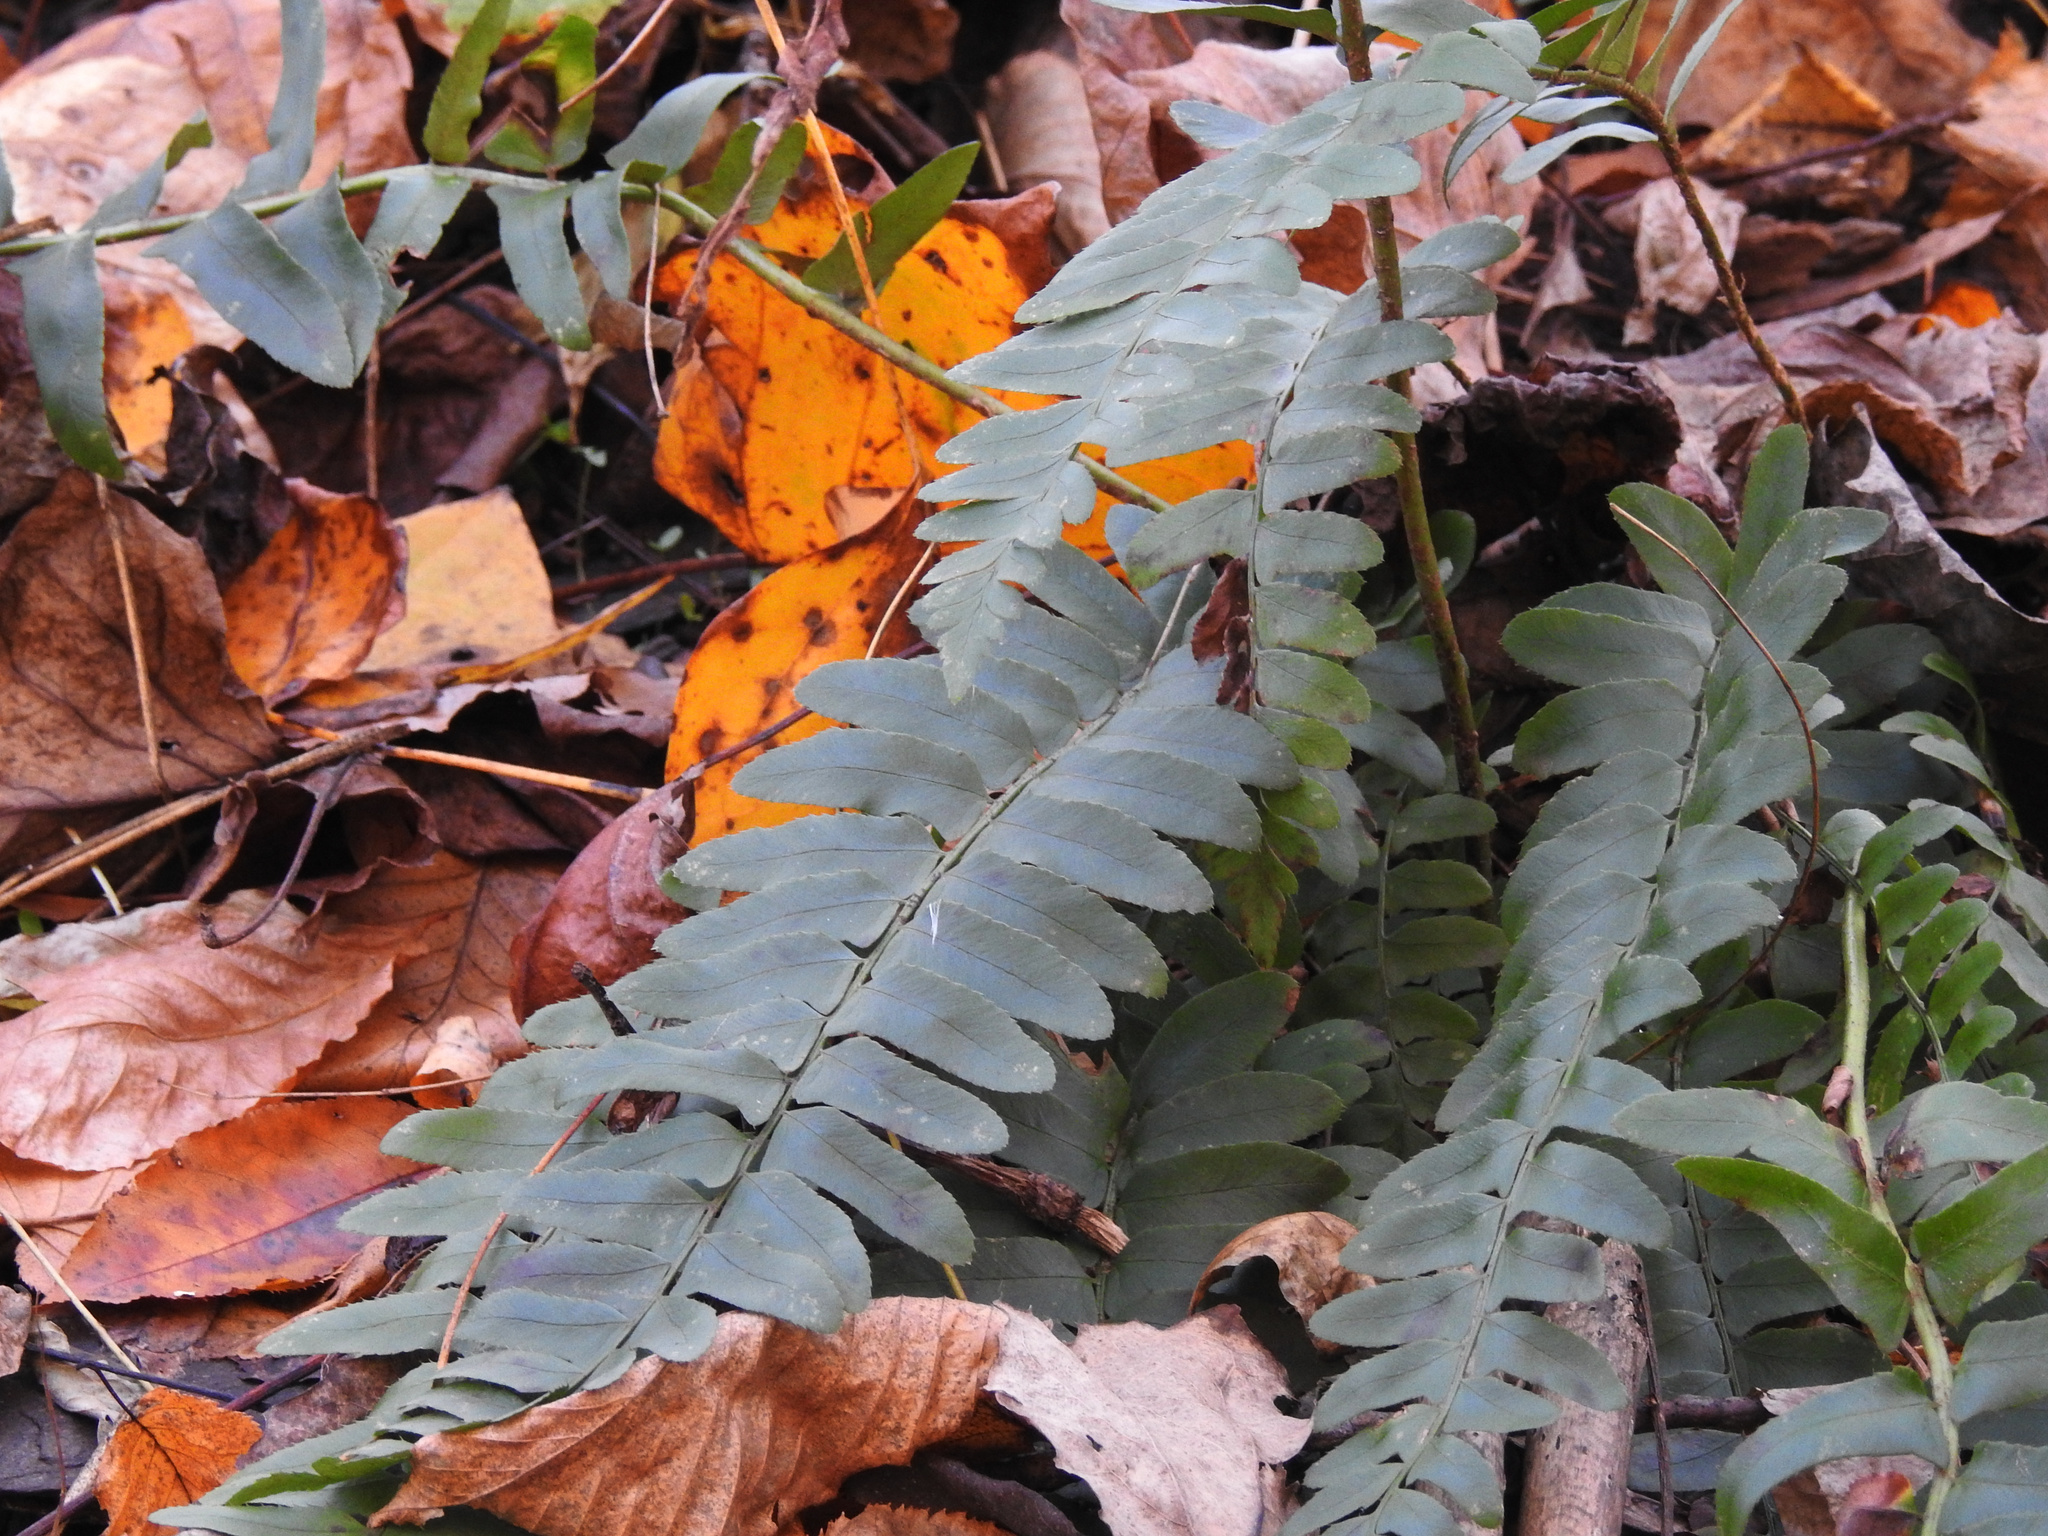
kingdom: Plantae
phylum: Tracheophyta
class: Polypodiopsida
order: Polypodiales
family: Dryopteridaceae
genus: Polystichum
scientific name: Polystichum acrostichoides
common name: Christmas fern
